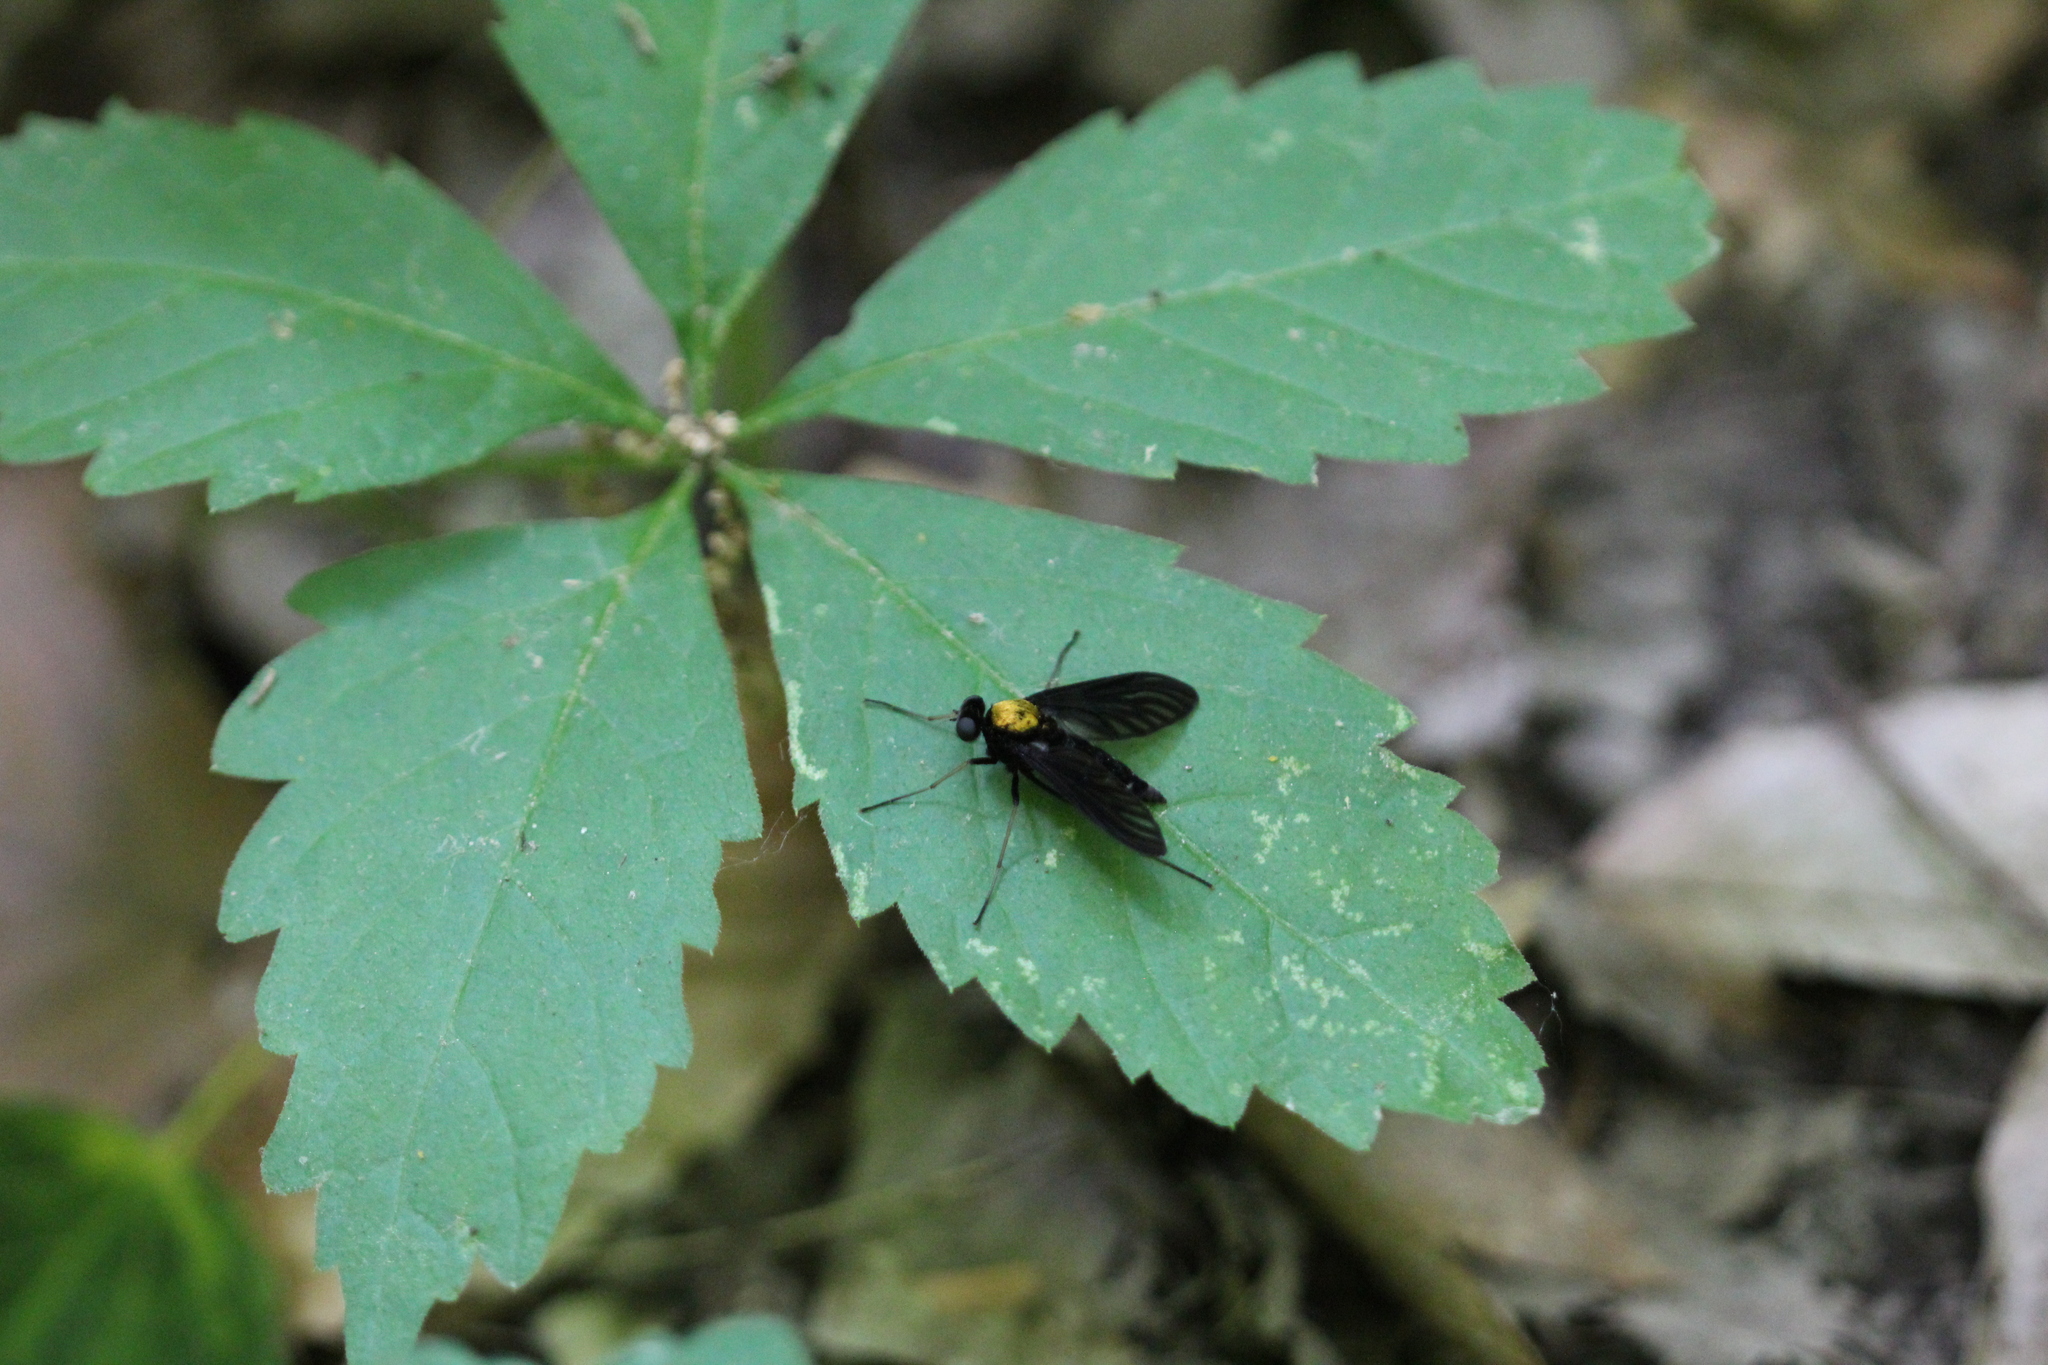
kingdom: Animalia
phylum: Arthropoda
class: Insecta
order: Diptera
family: Rhagionidae
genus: Chrysopilus
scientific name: Chrysopilus thoracicus
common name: Golden-backed snipe fly
